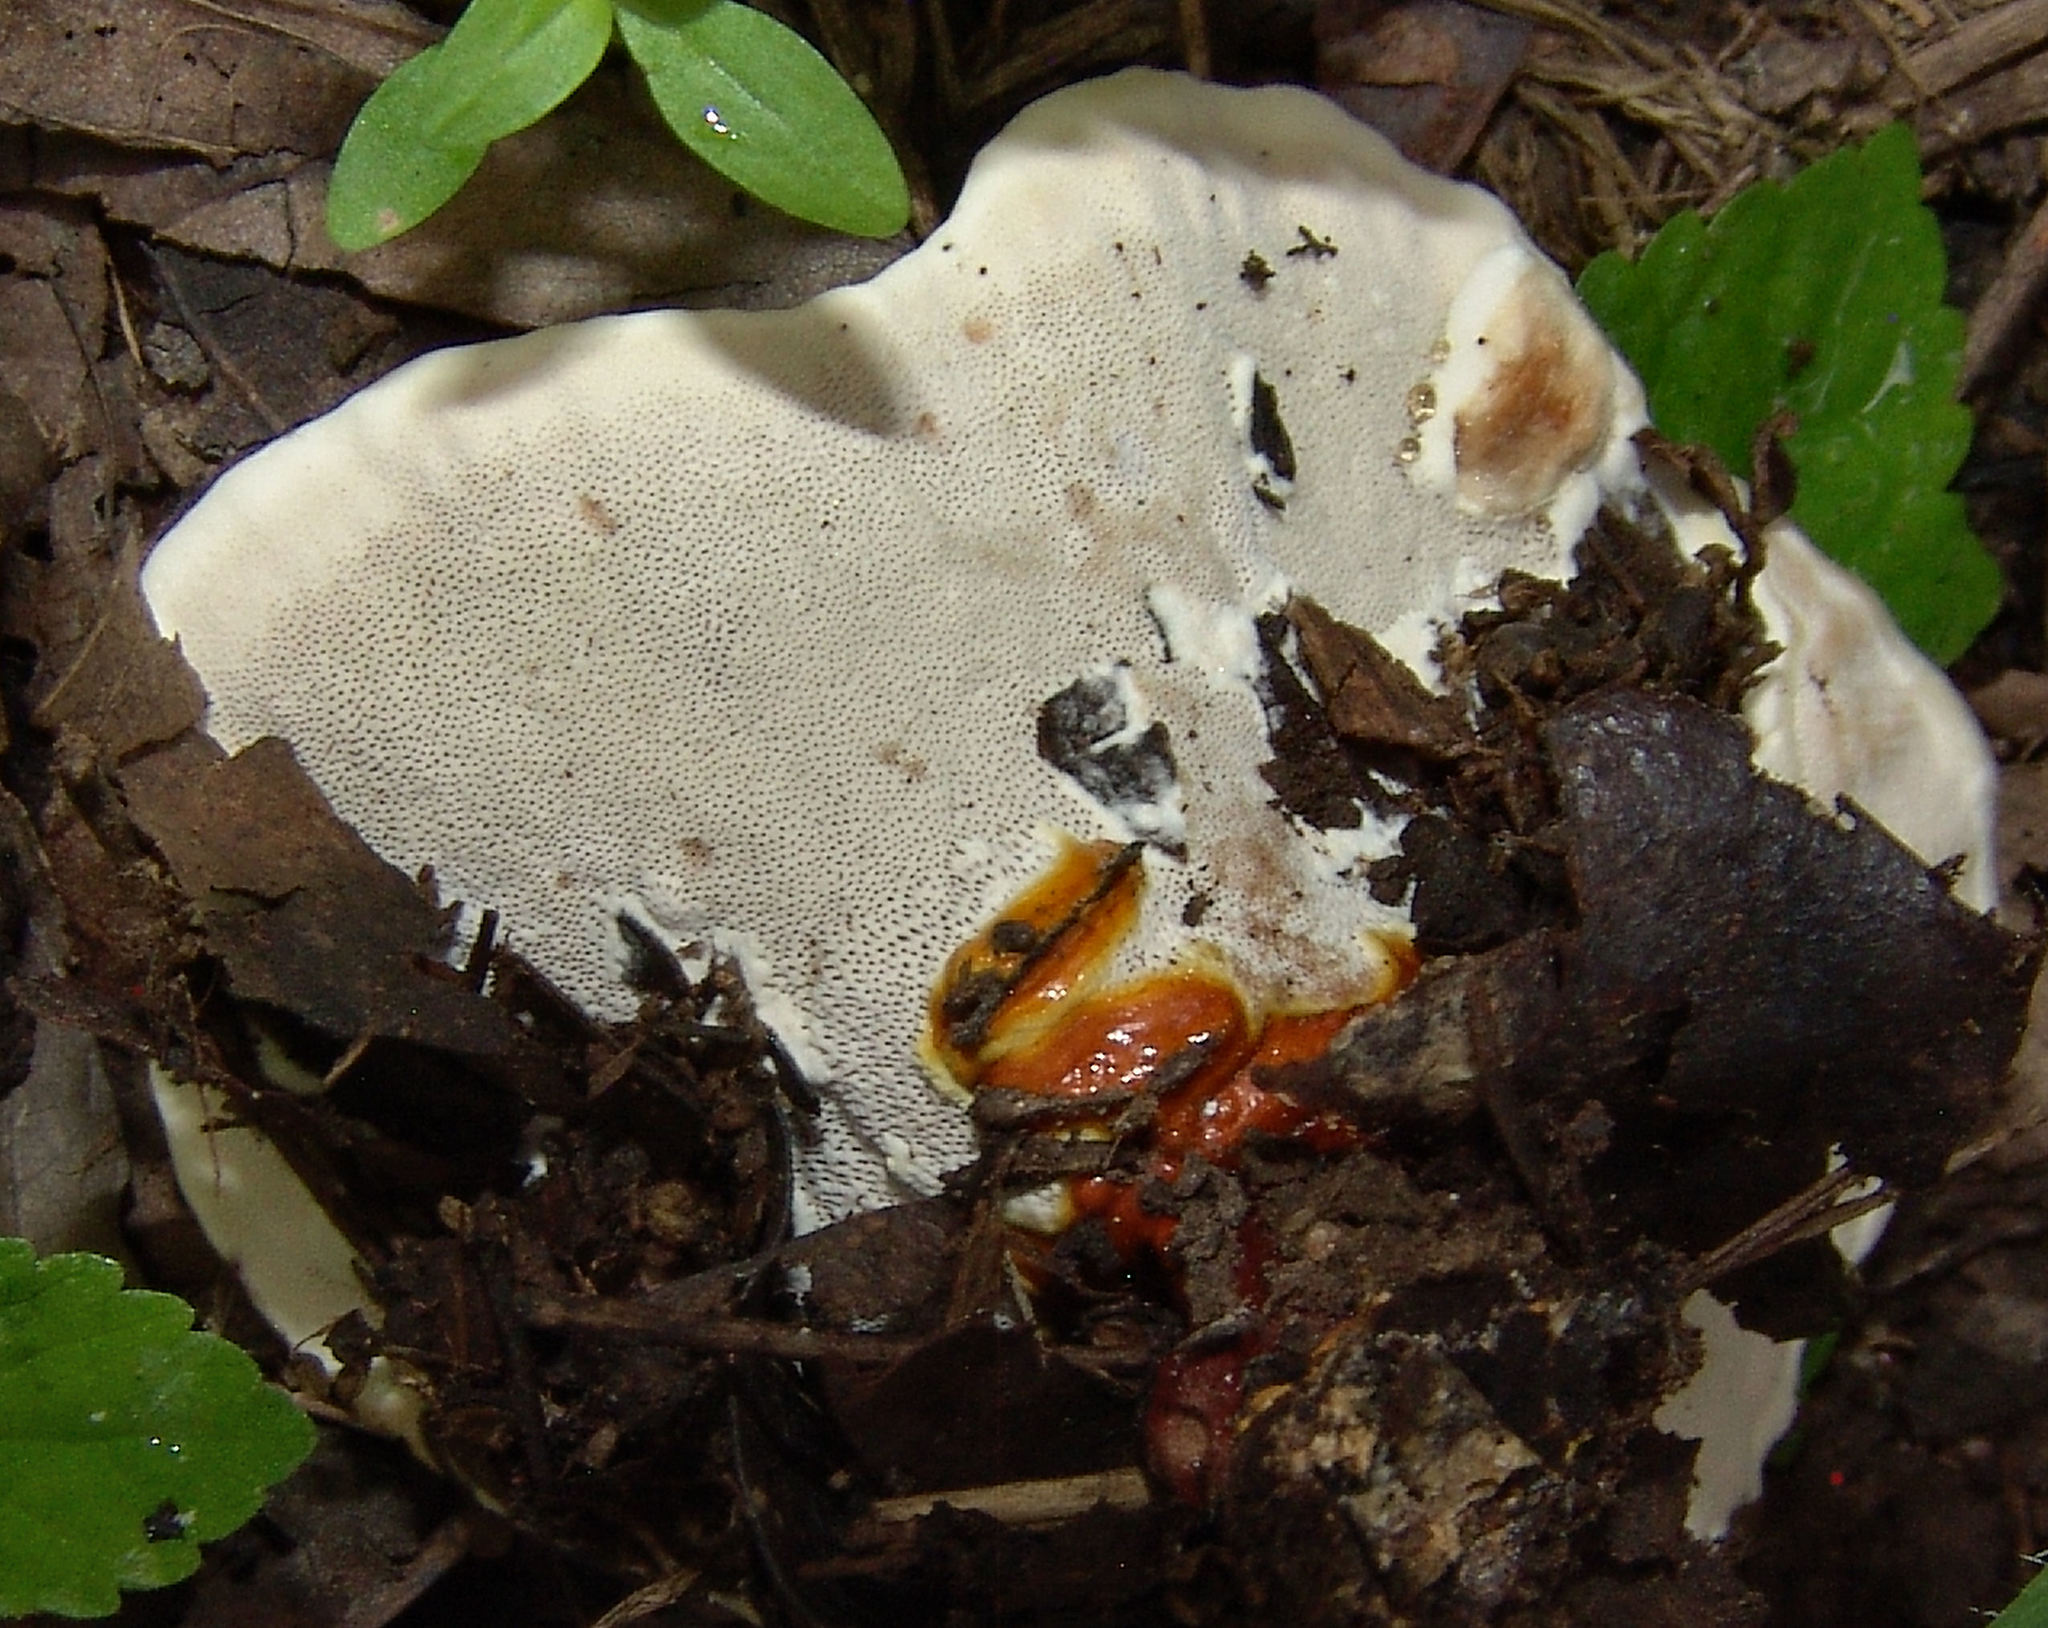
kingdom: Fungi
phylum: Basidiomycota
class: Agaricomycetes
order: Polyporales
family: Polyporaceae
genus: Ganoderma
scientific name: Ganoderma resinaceum
